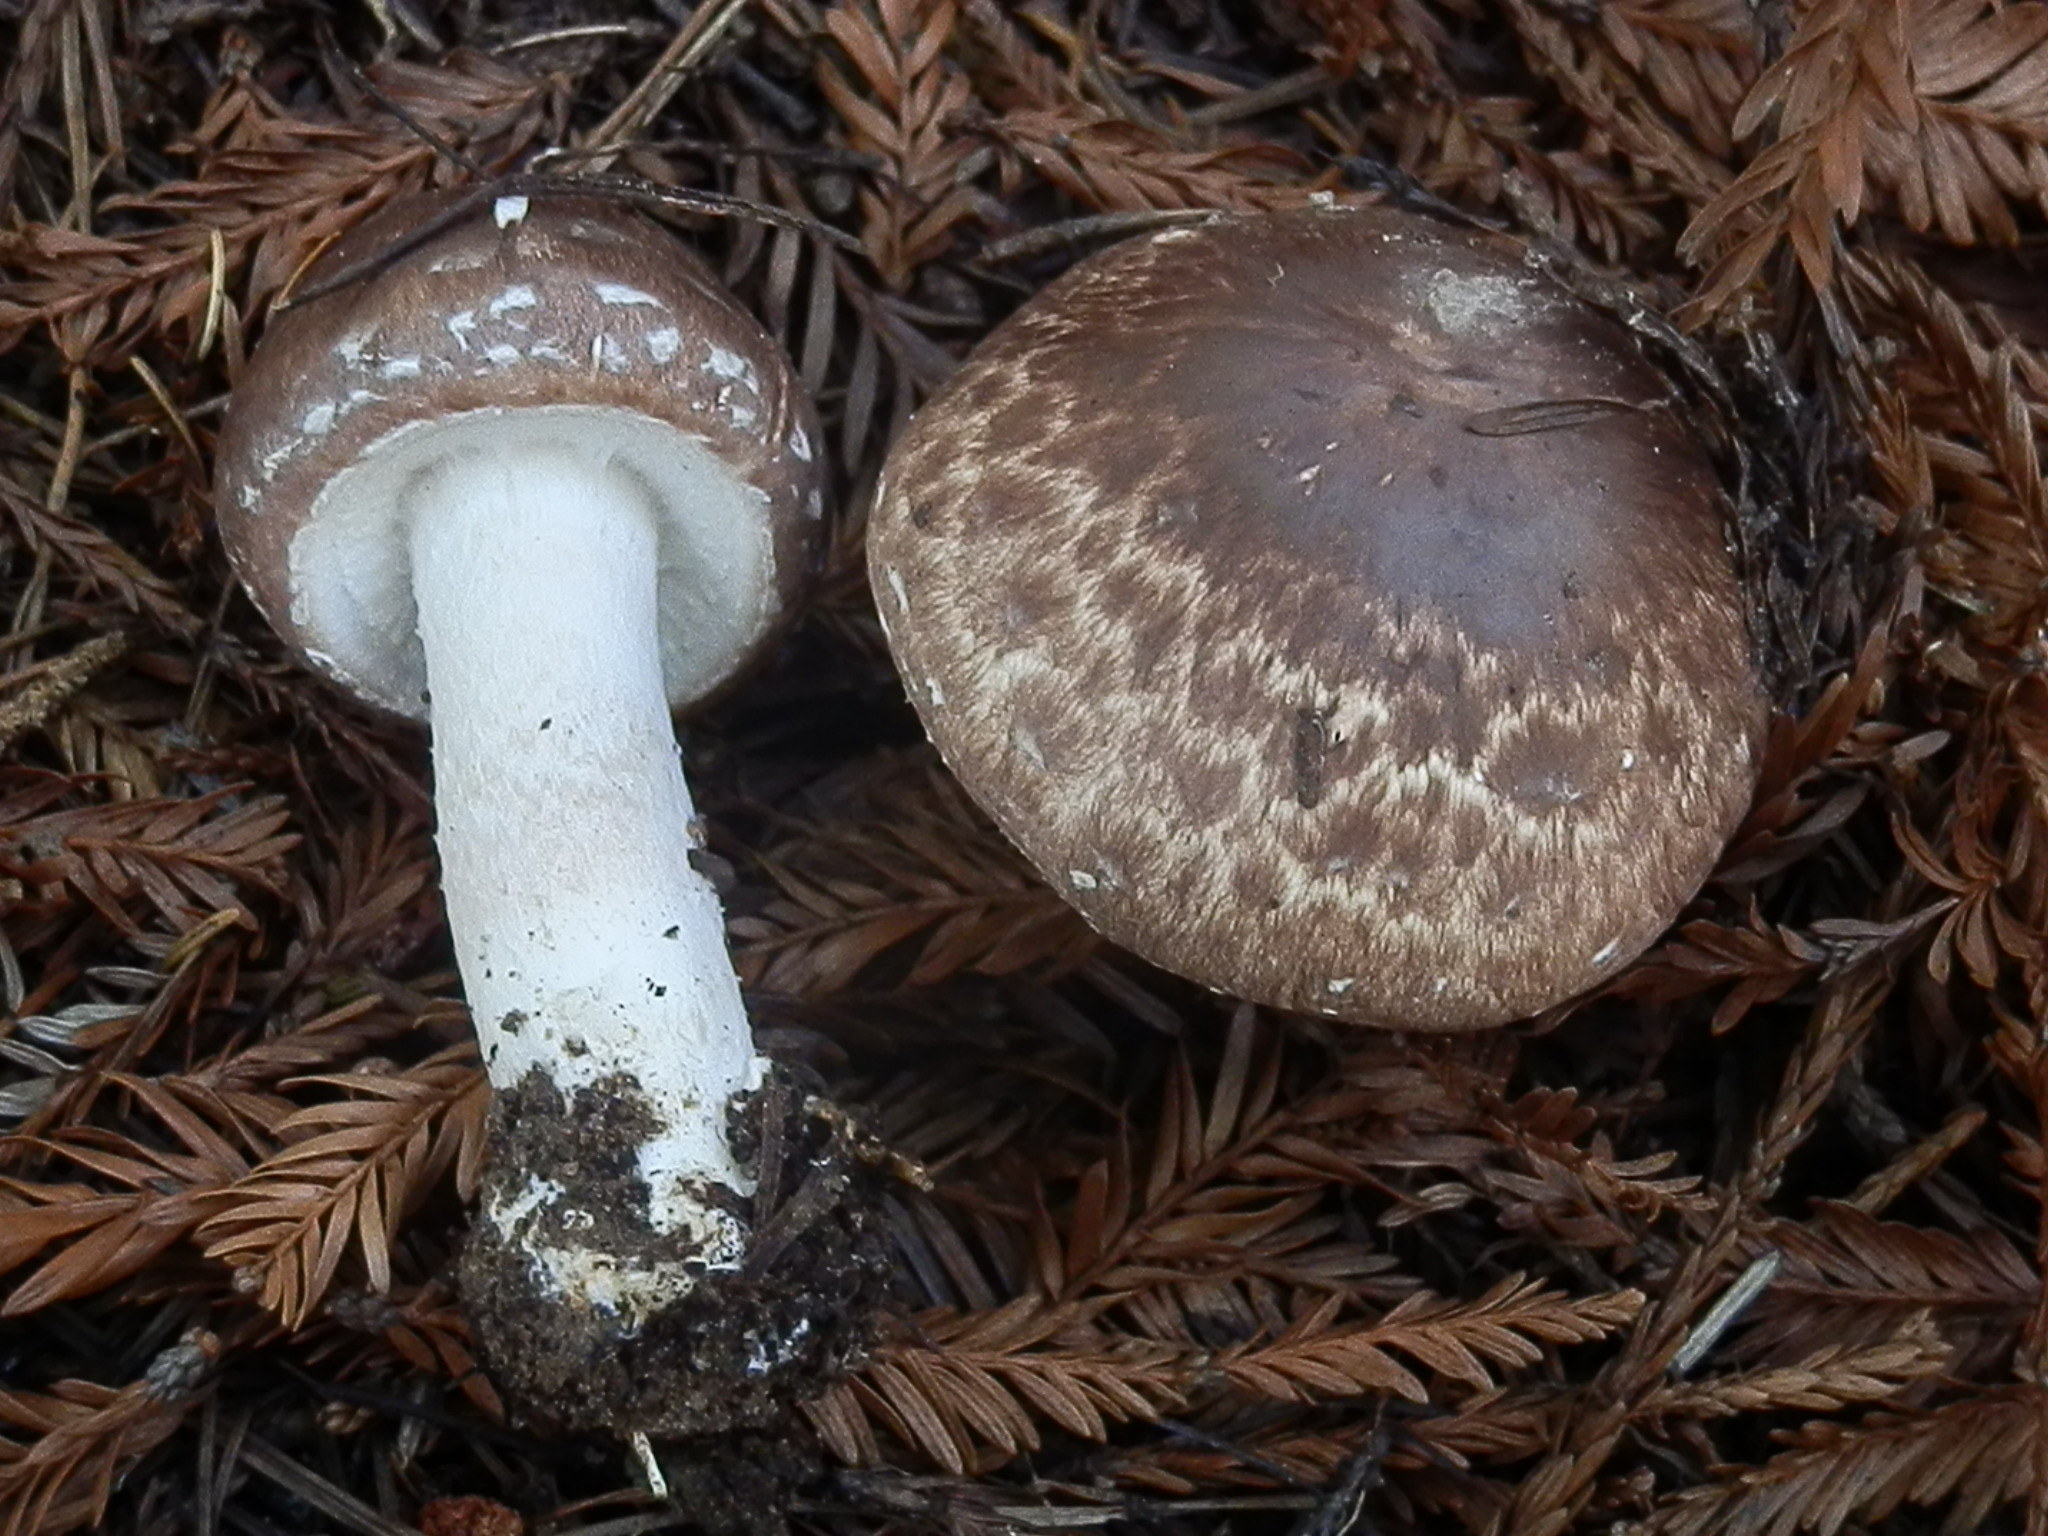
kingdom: Fungi
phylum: Basidiomycota
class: Agaricomycetes
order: Agaricales
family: Agaricaceae
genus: Agaricus
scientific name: Agaricus hondensis
